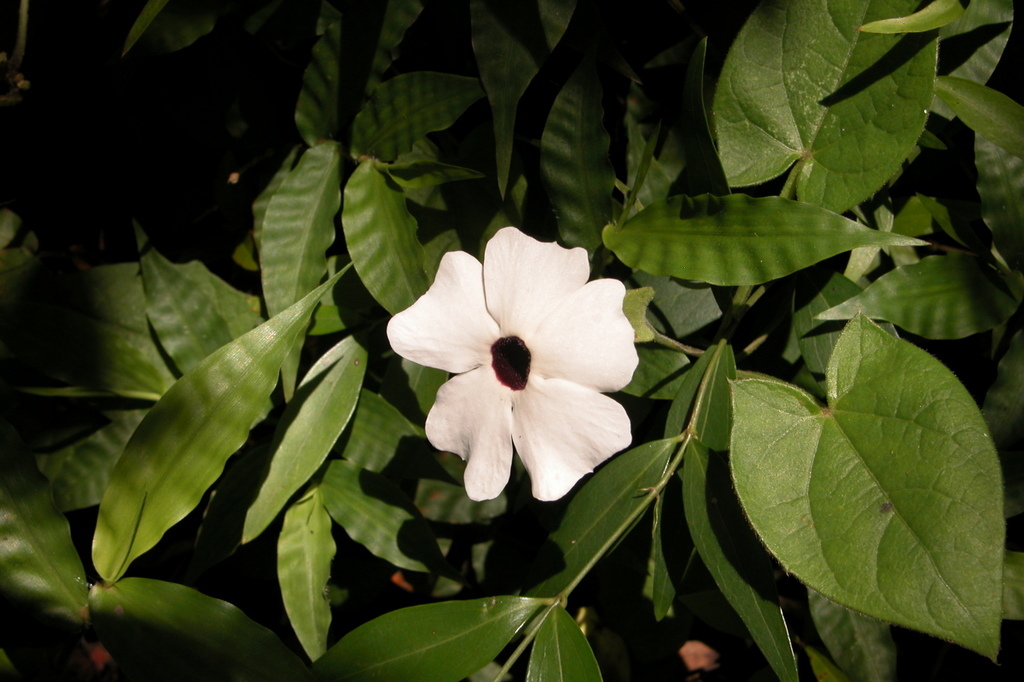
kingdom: Plantae
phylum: Tracheophyta
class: Magnoliopsida
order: Lamiales
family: Acanthaceae
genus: Thunbergia
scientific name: Thunbergia alata
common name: Blackeyed susan vine
